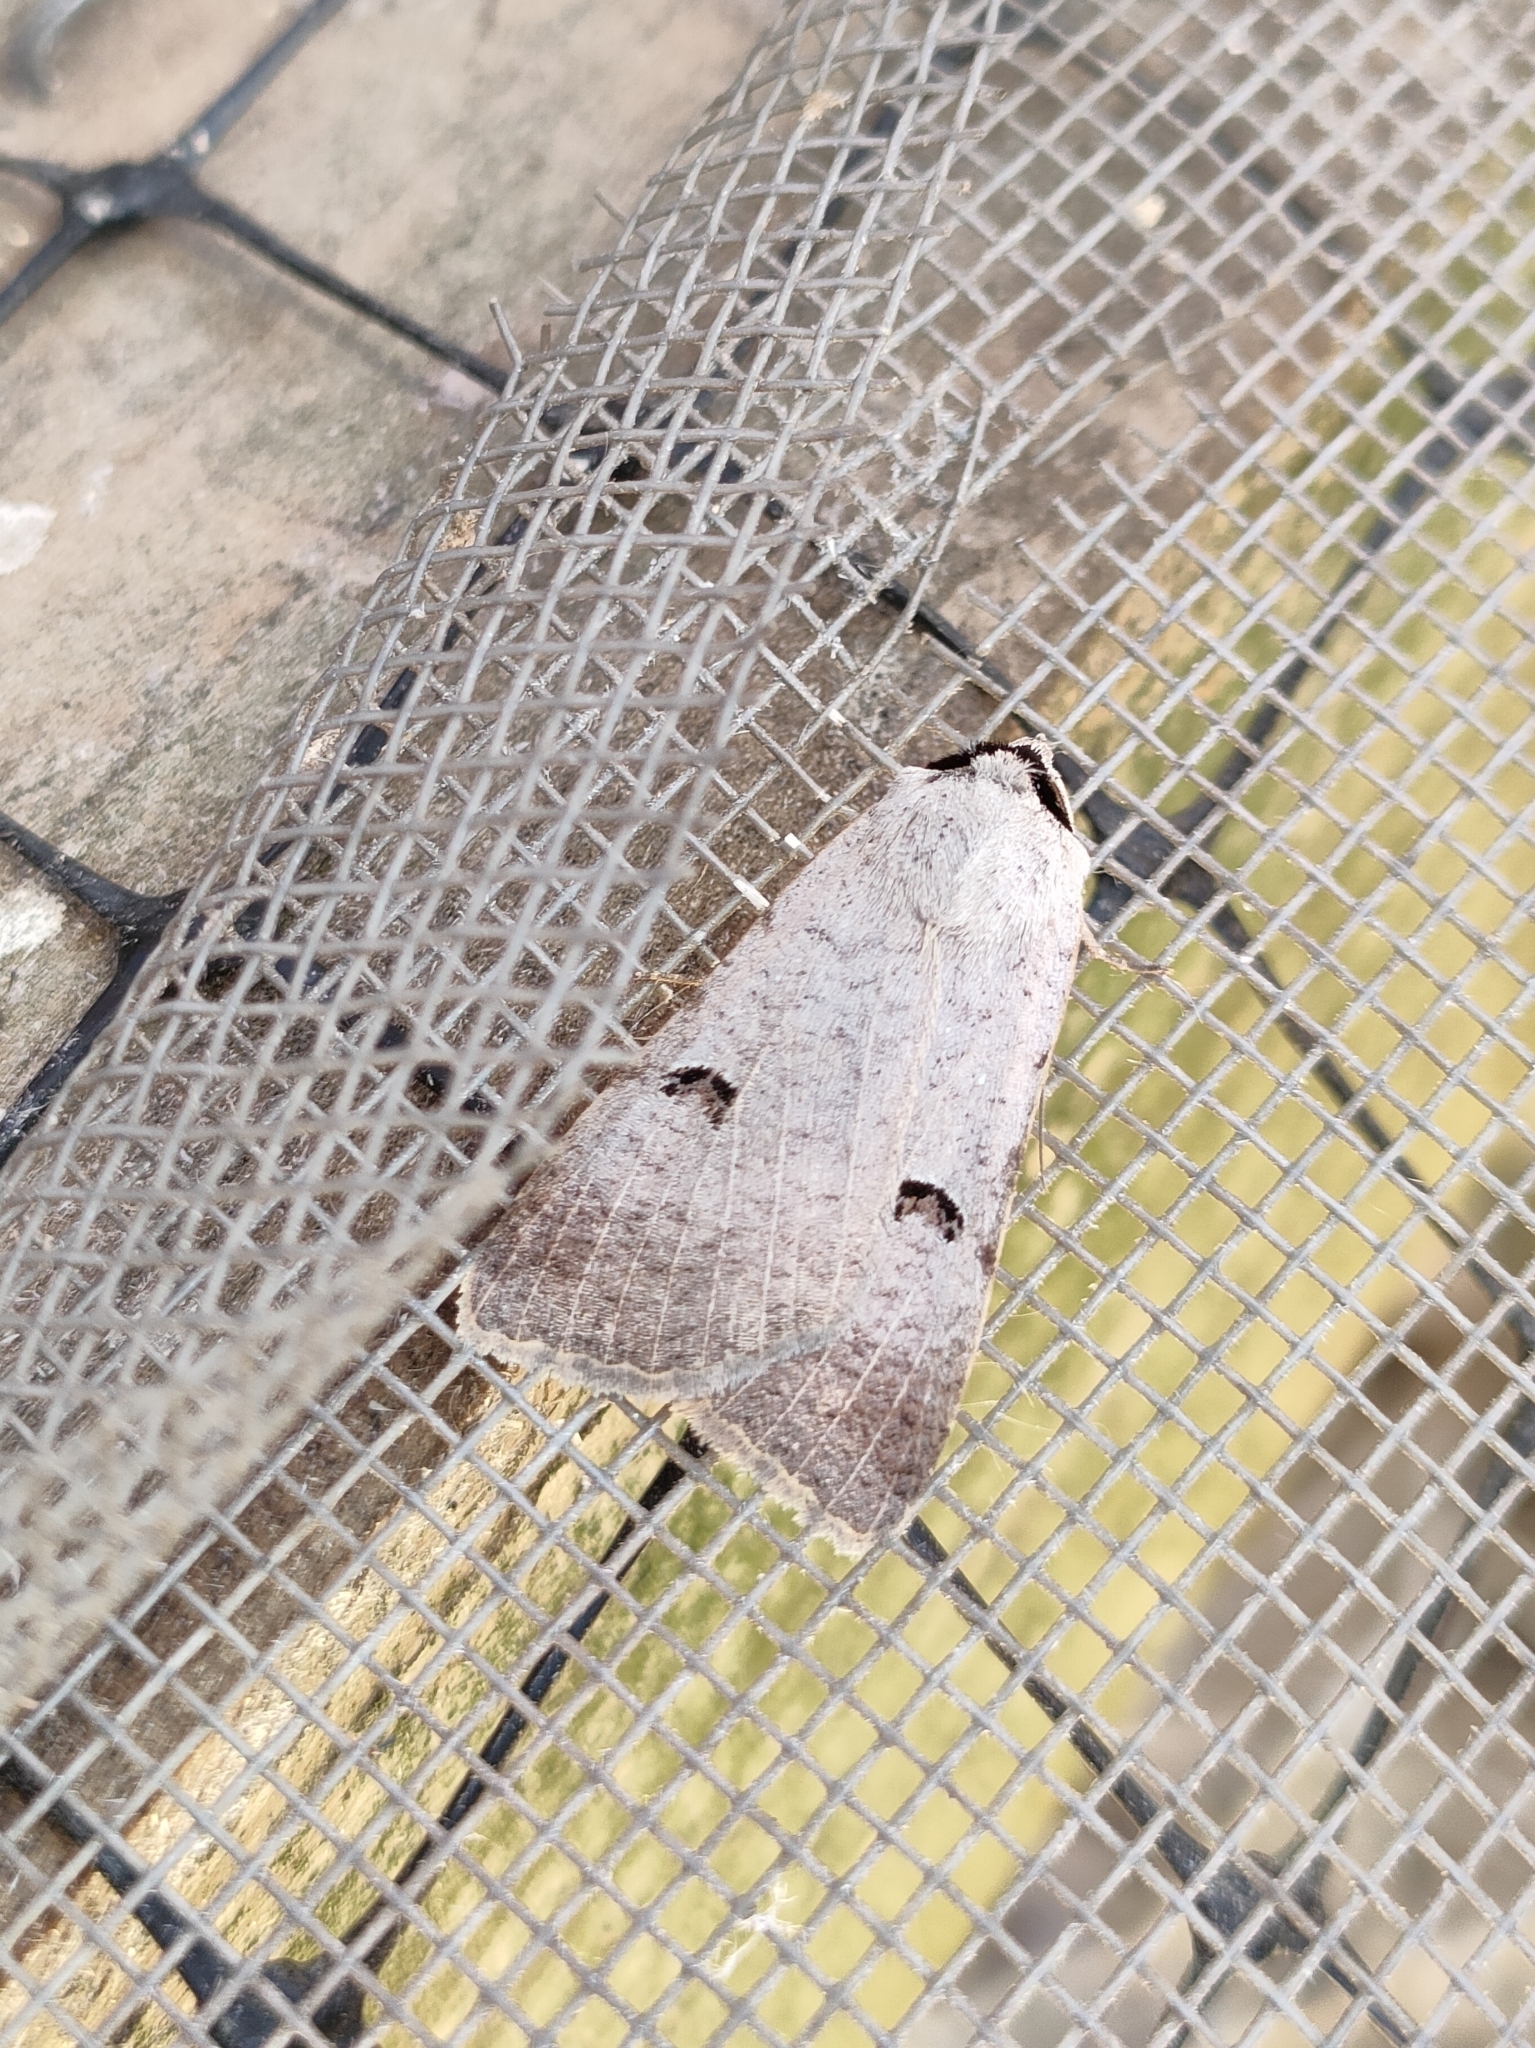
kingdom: Animalia
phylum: Arthropoda
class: Insecta
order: Lepidoptera
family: Erebidae
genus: Lygephila
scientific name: Lygephila craccae
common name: Scarce blackneck
